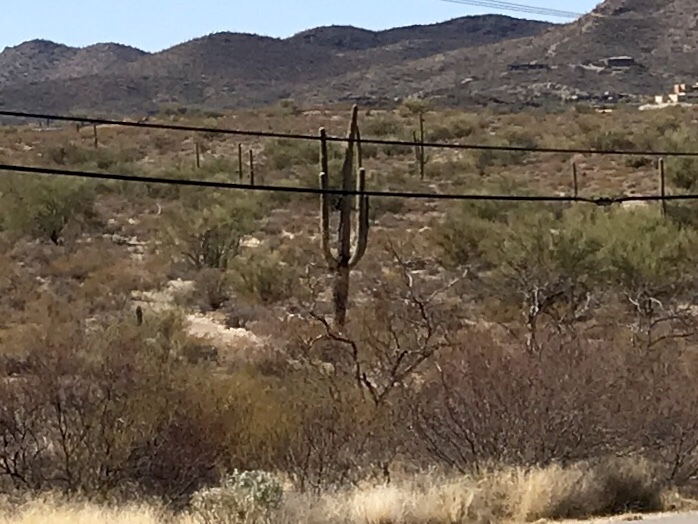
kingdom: Plantae
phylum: Tracheophyta
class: Magnoliopsida
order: Caryophyllales
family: Cactaceae
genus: Carnegiea
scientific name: Carnegiea gigantea
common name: Saguaro
